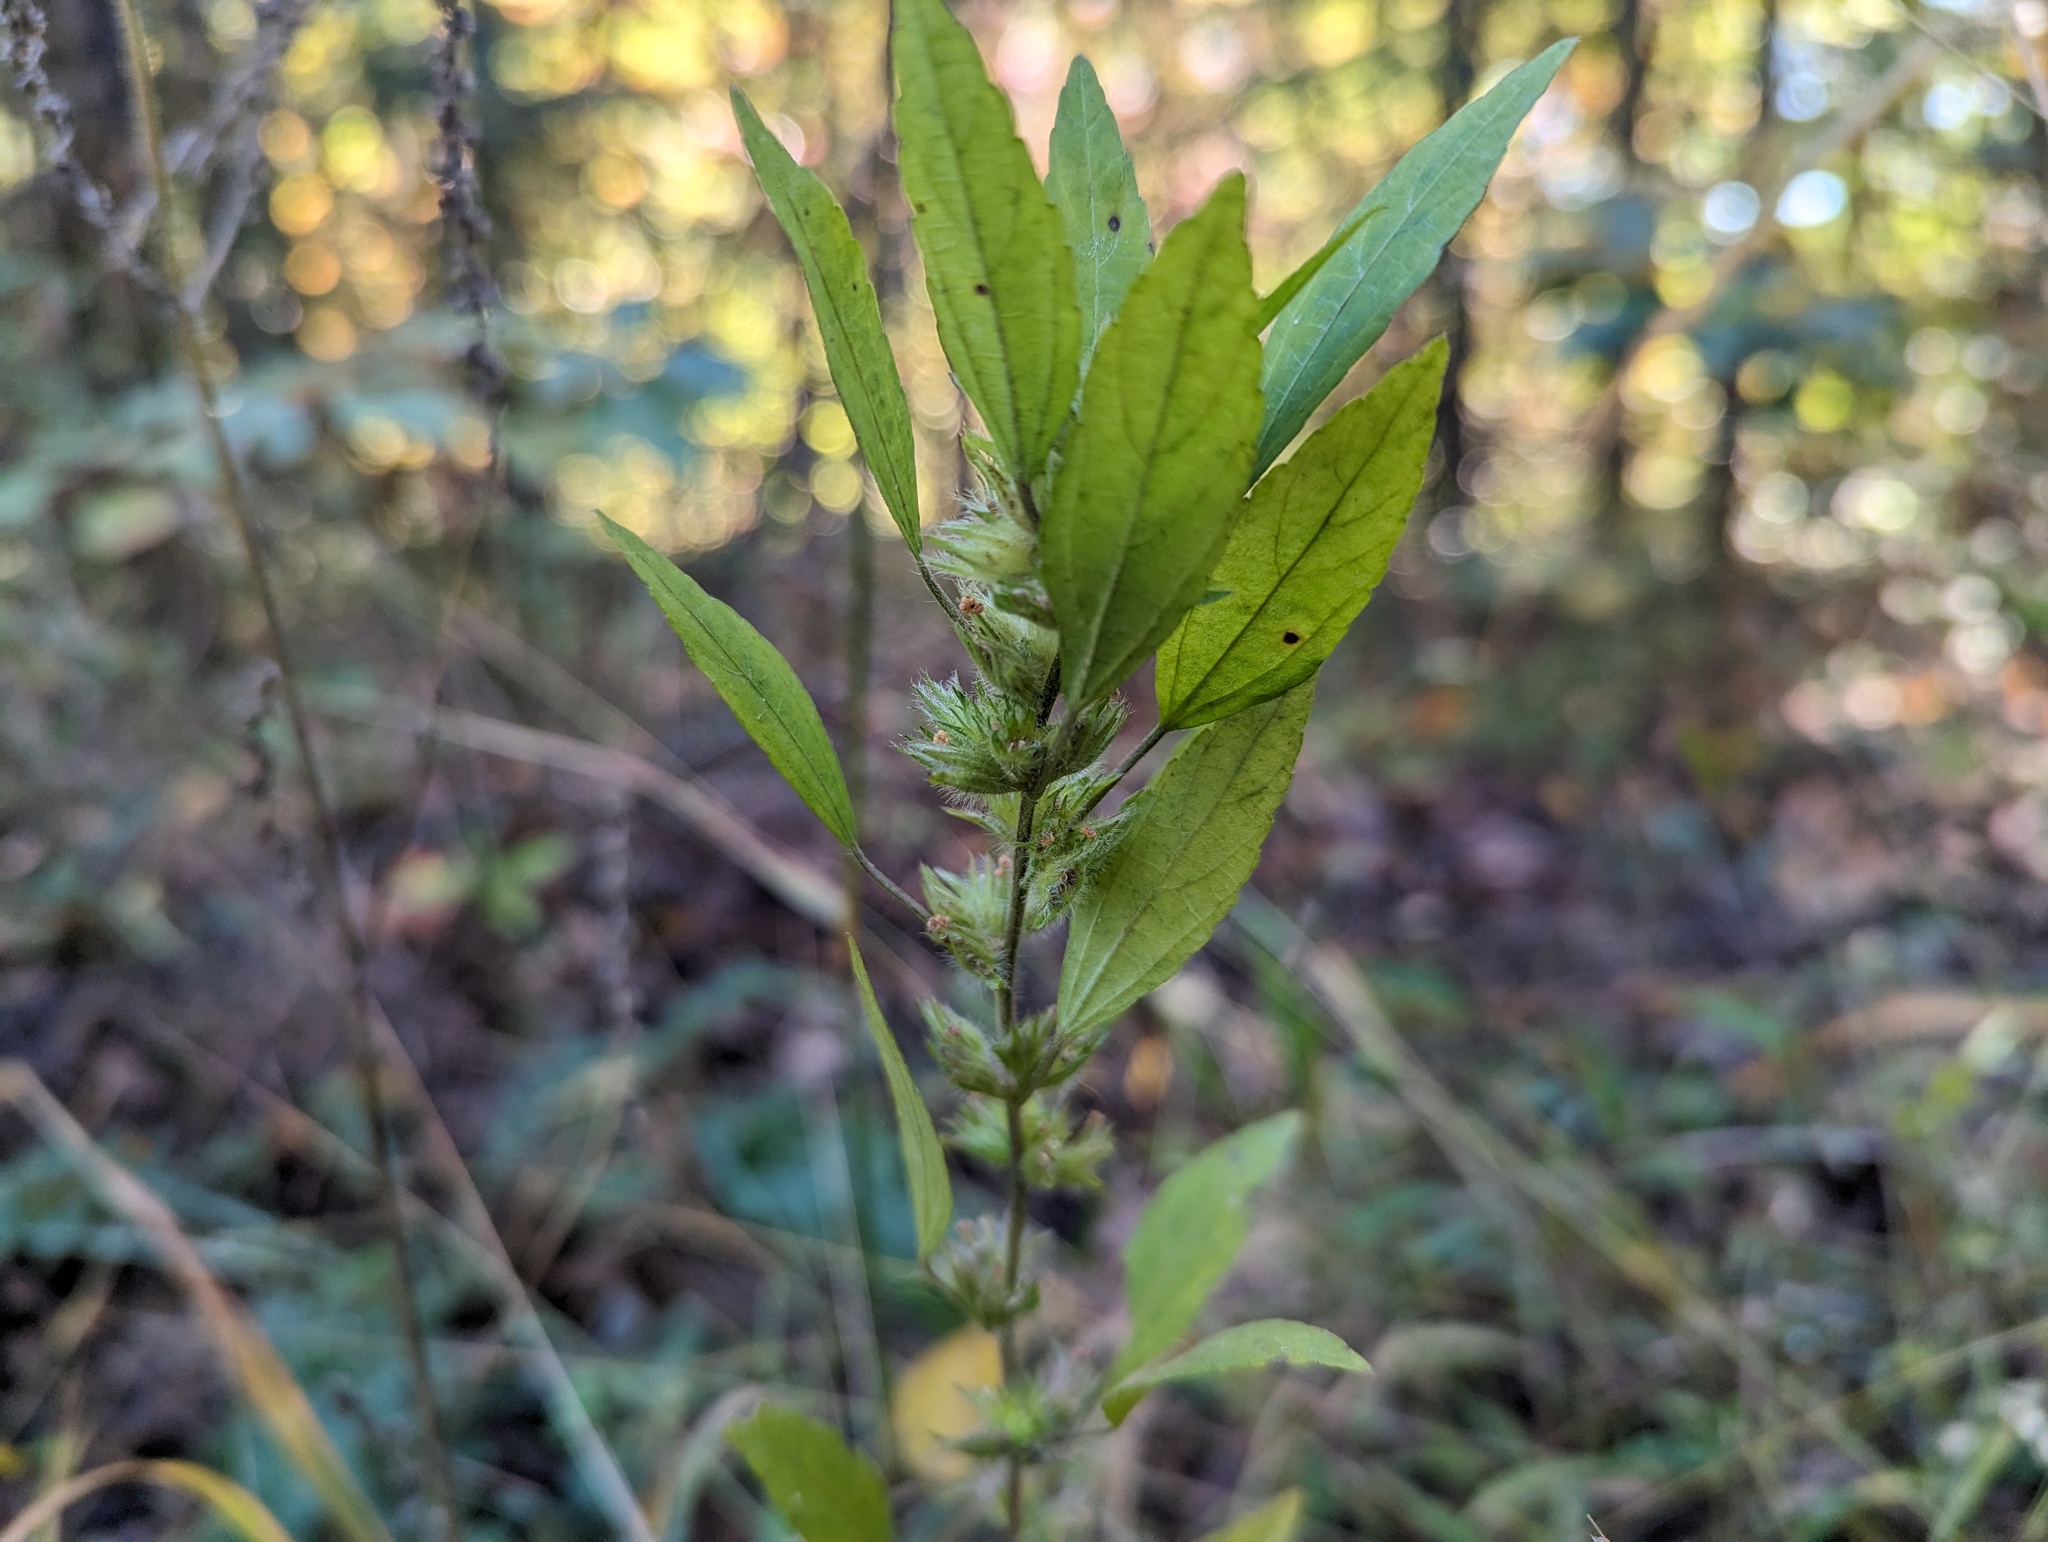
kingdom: Plantae
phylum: Tracheophyta
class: Magnoliopsida
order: Malpighiales
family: Euphorbiaceae
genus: Acalypha
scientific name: Acalypha virginica
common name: Virginia copperleaf
